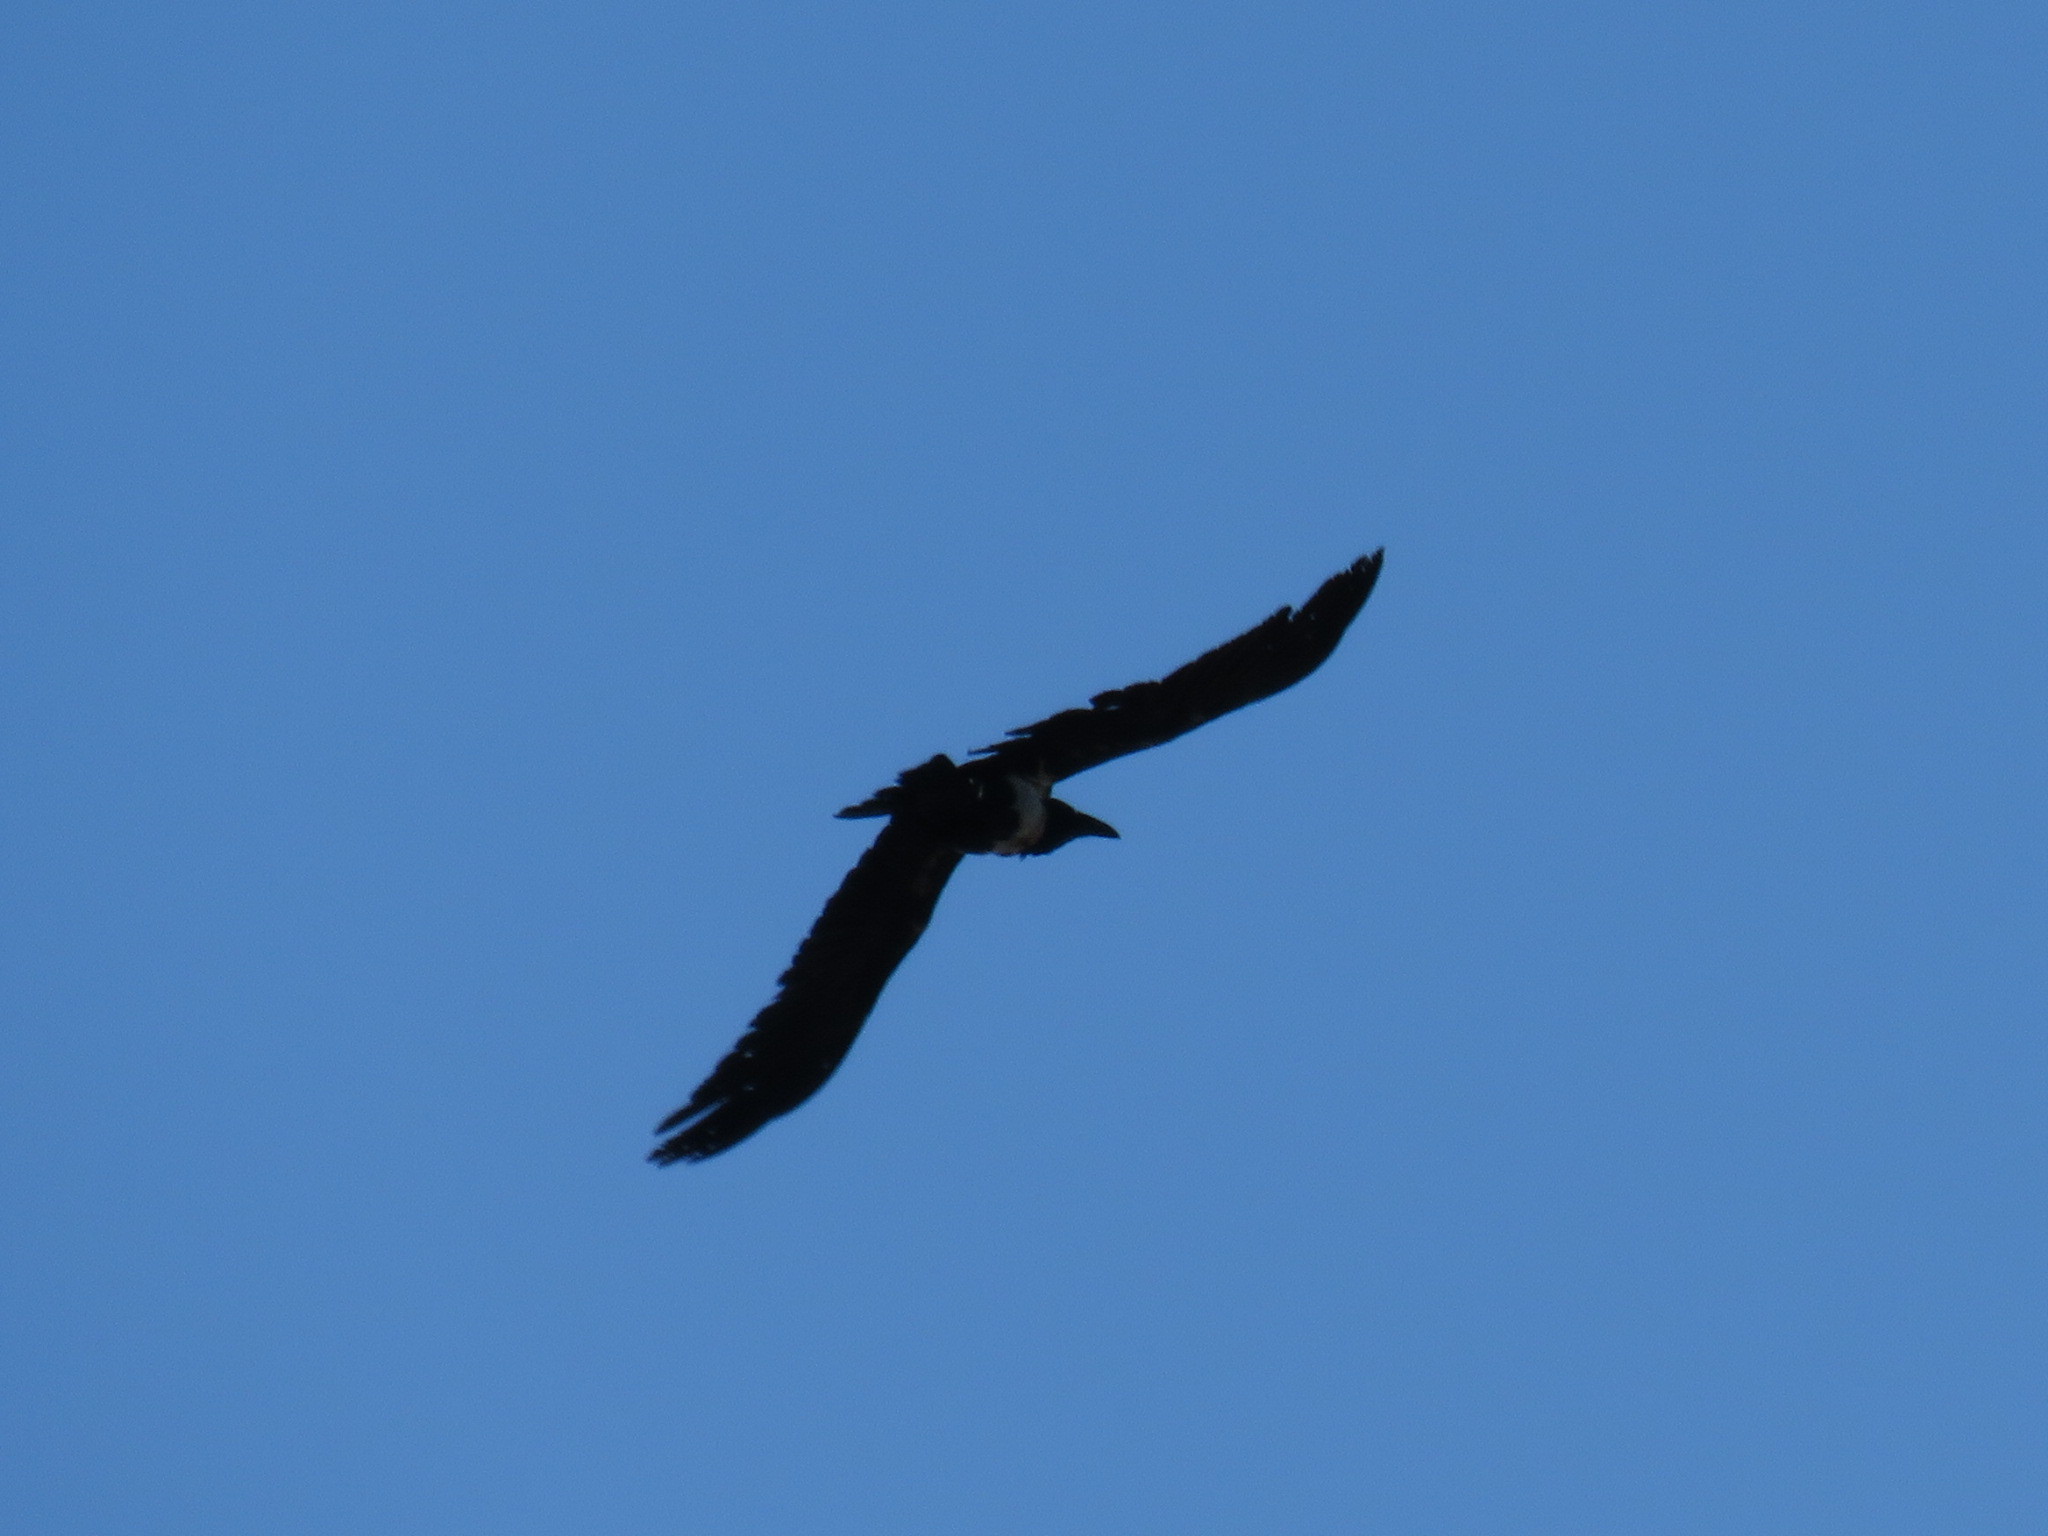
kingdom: Animalia
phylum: Chordata
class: Aves
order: Passeriformes
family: Corvidae
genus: Corvus
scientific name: Corvus albus
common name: Pied crow
